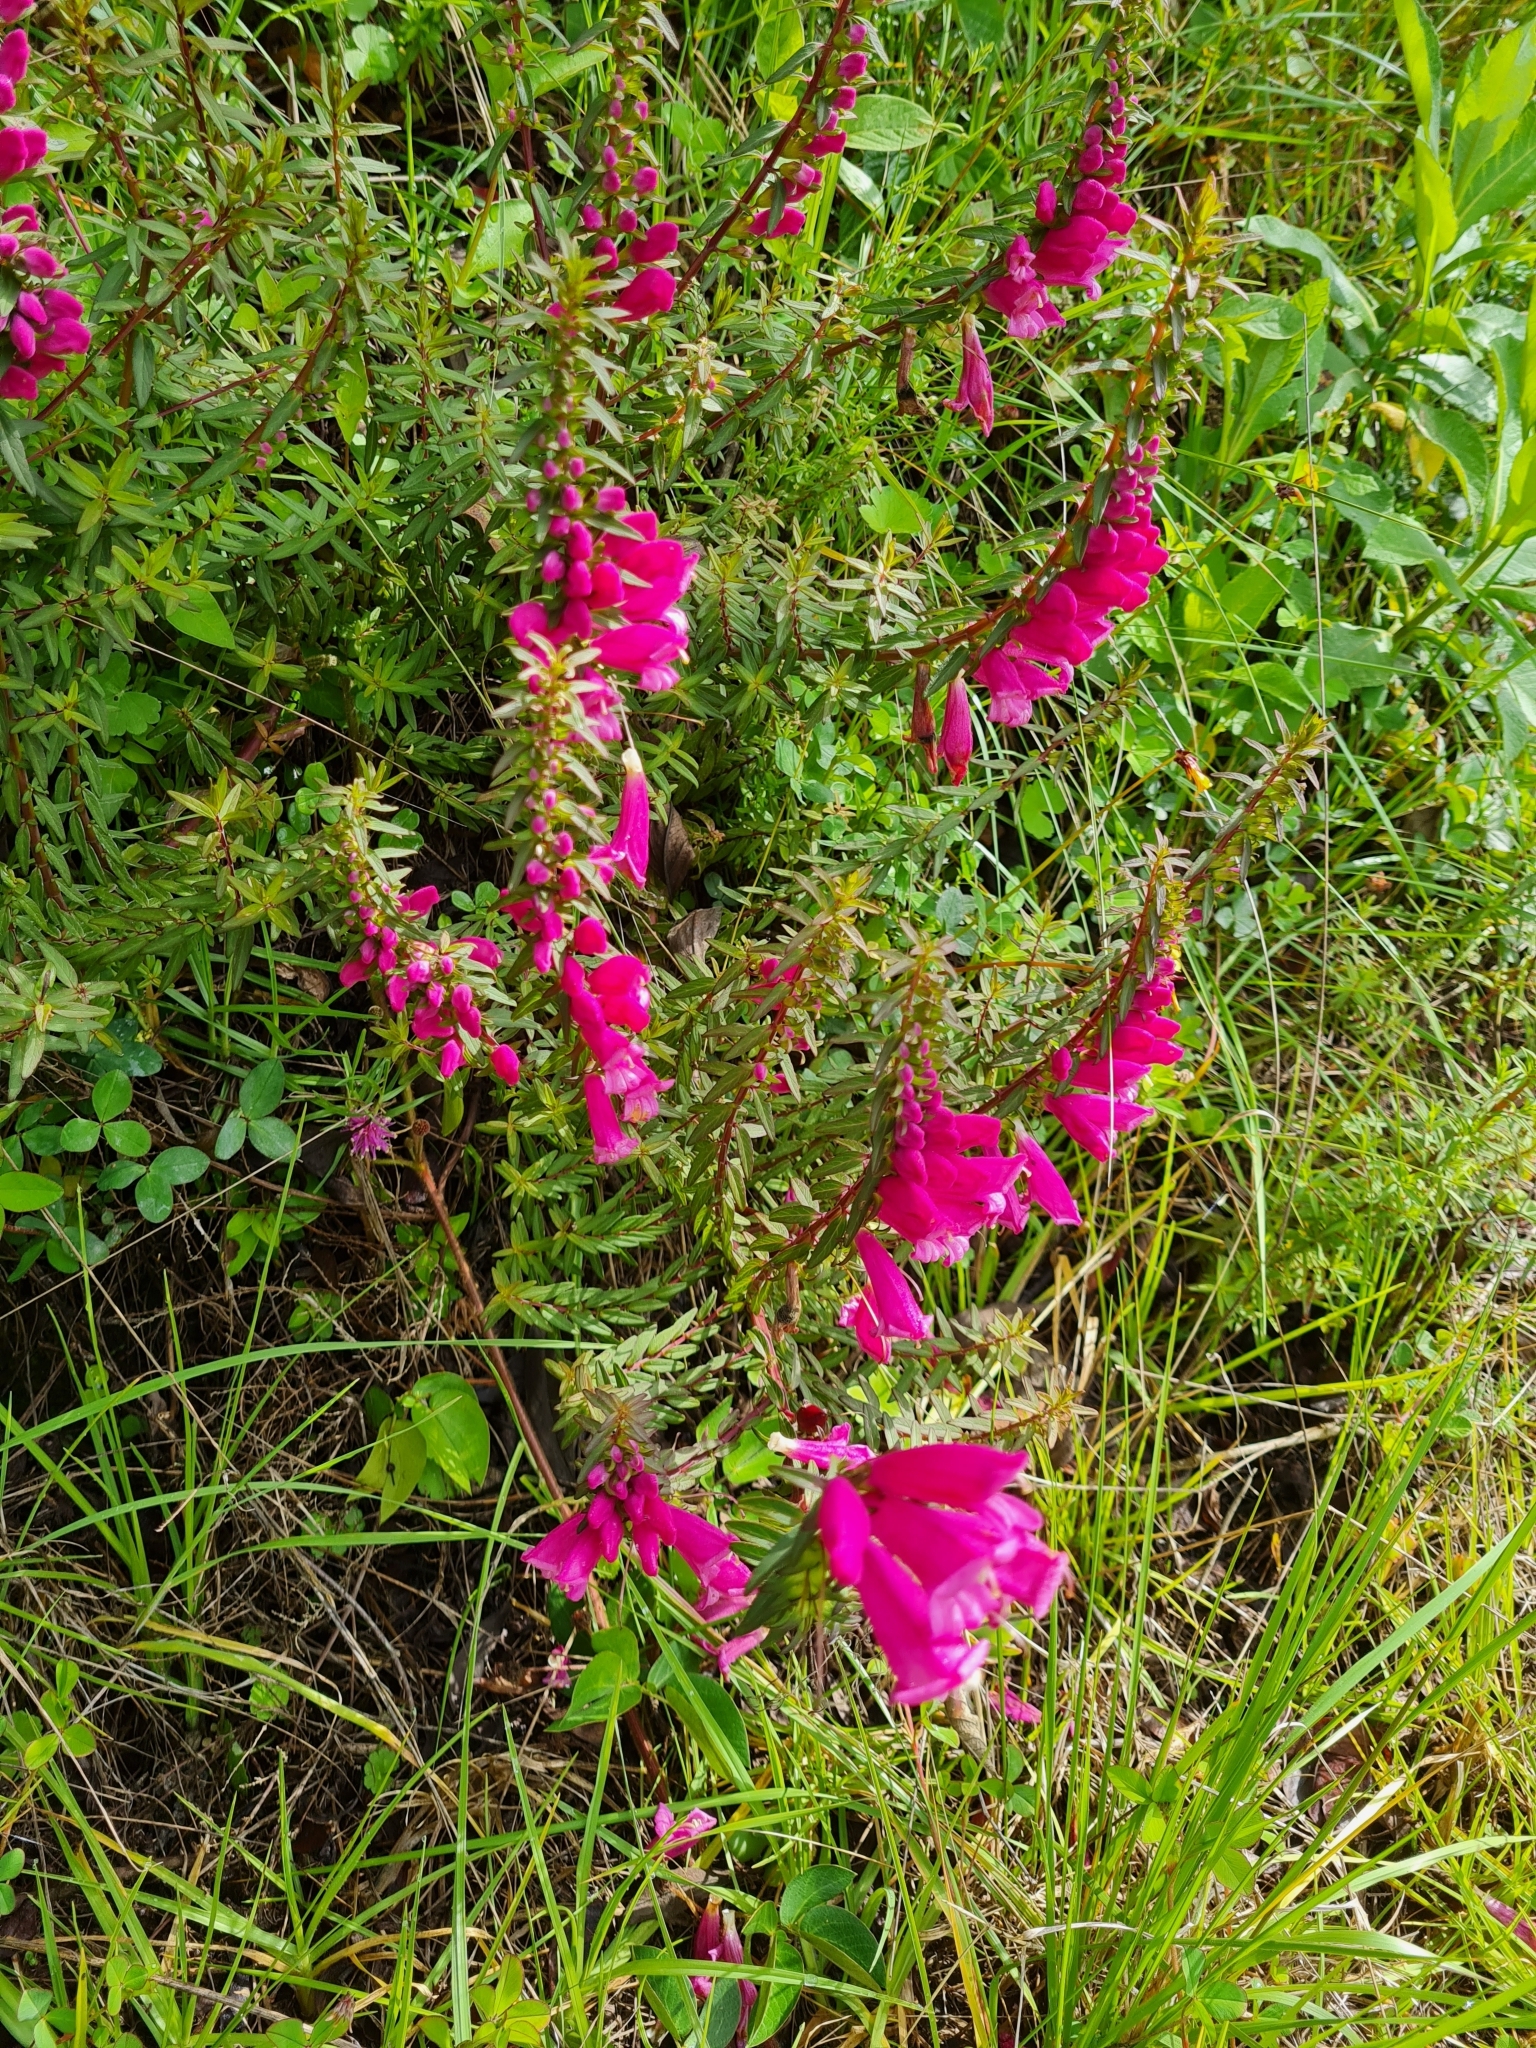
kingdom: Plantae
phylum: Tracheophyta
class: Magnoliopsida
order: Lamiales
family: Orobanchaceae
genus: Lamourouxia
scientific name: Lamourouxia virgata
